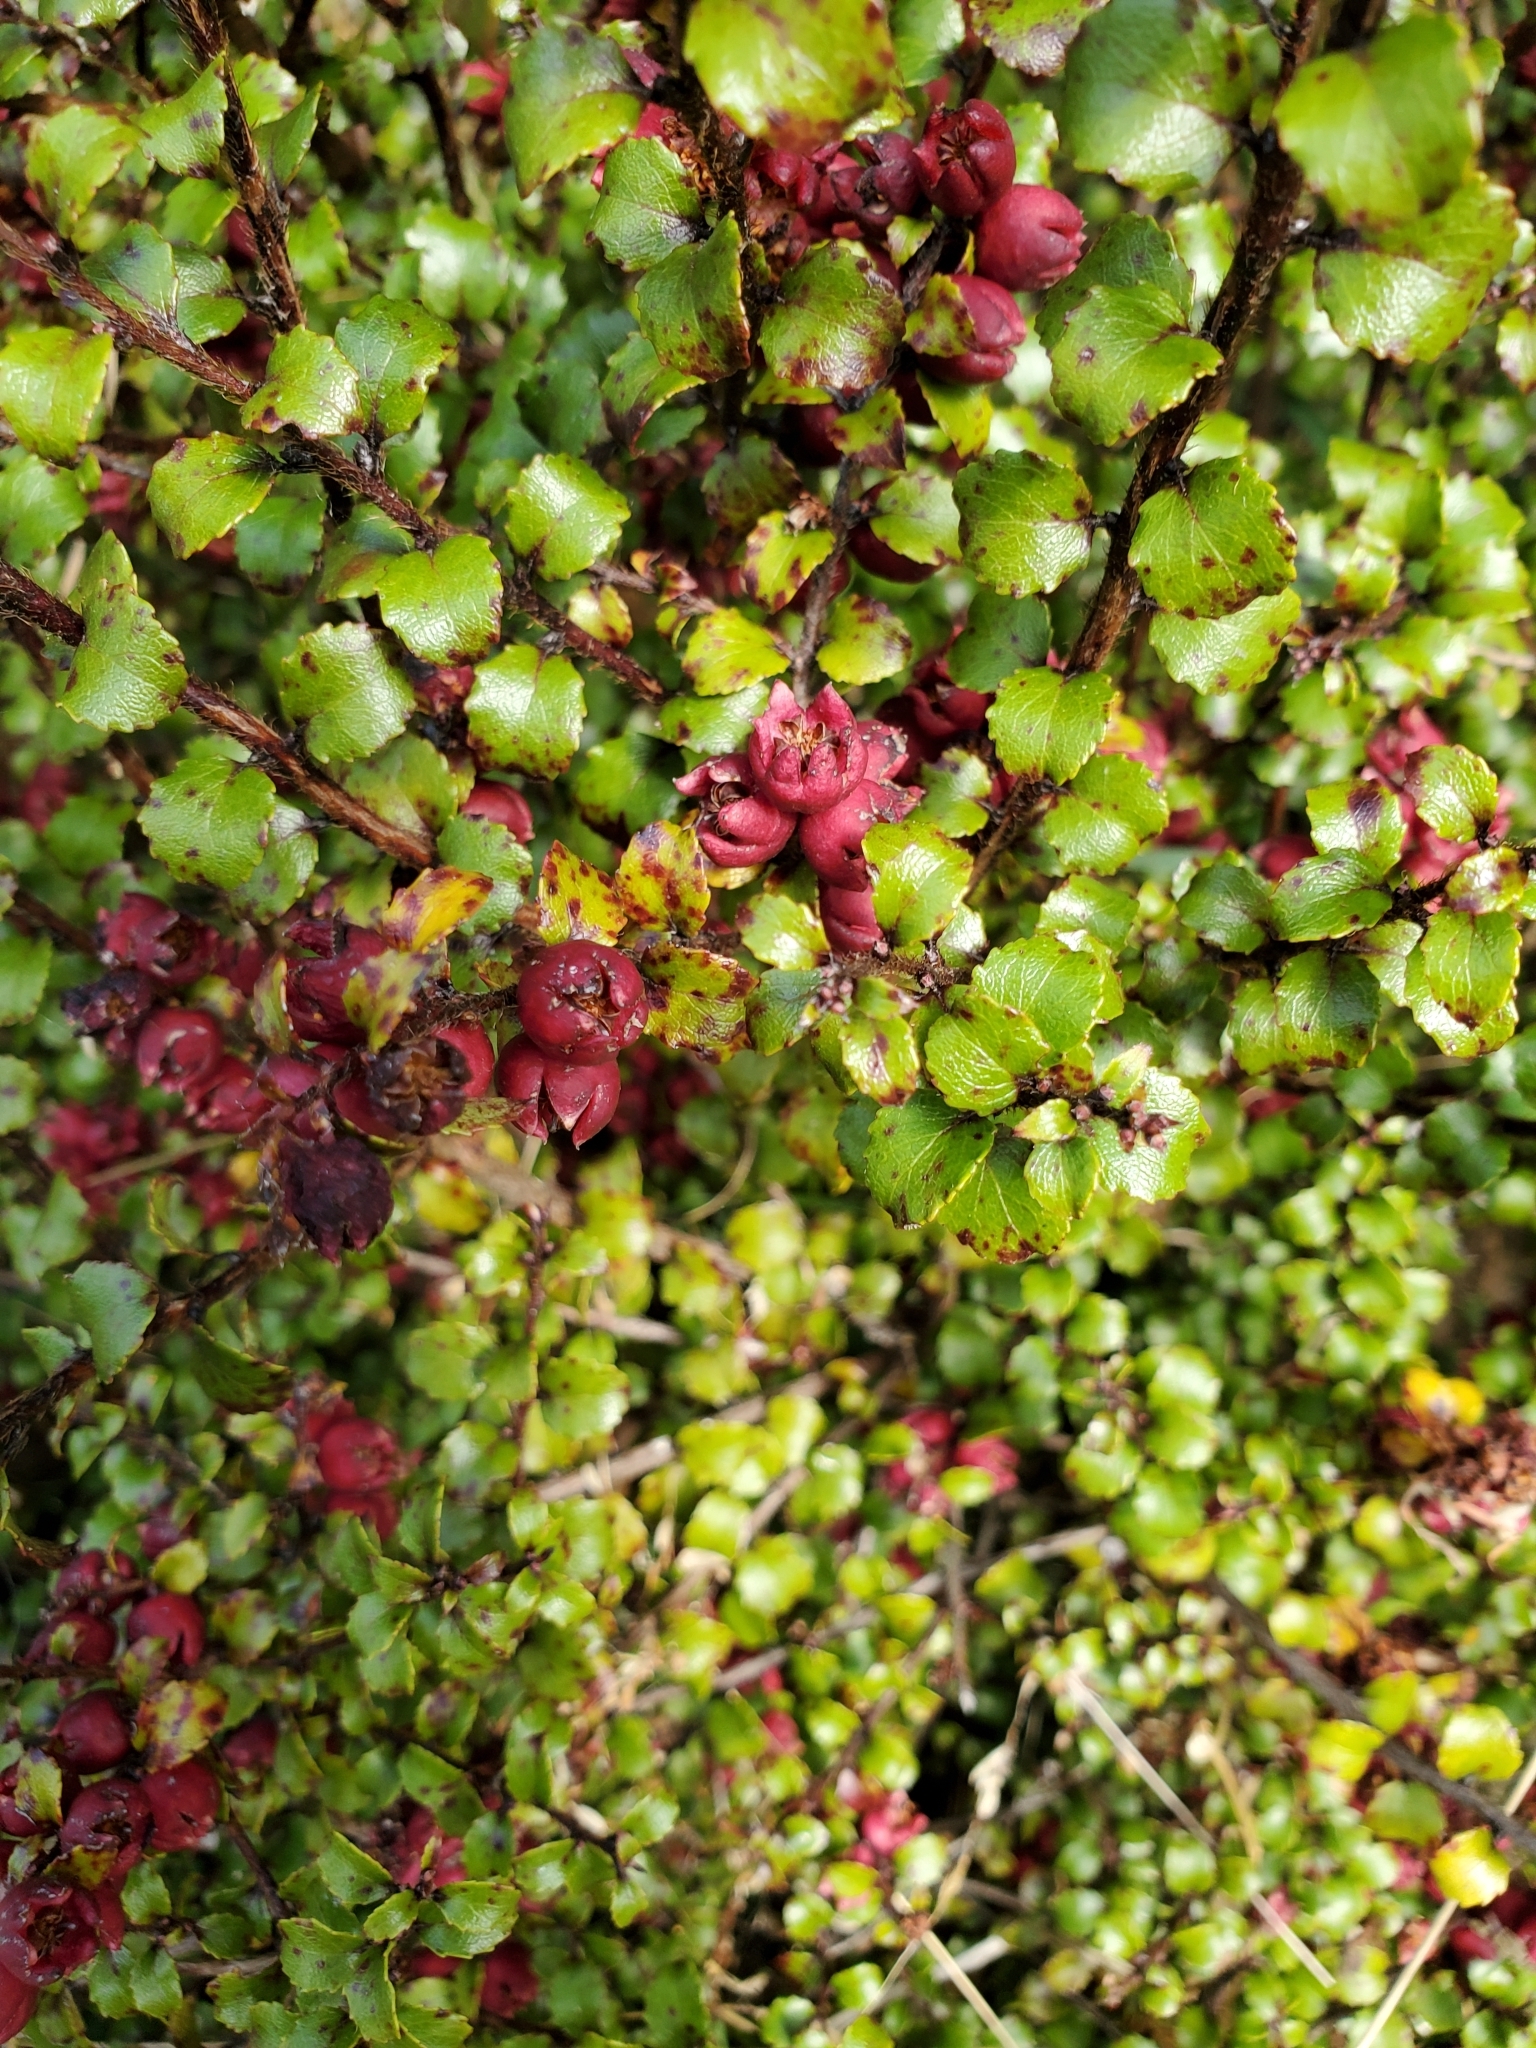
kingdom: Plantae
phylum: Tracheophyta
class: Magnoliopsida
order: Ericales
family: Ericaceae
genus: Gaultheria
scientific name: Gaultheria antipoda
